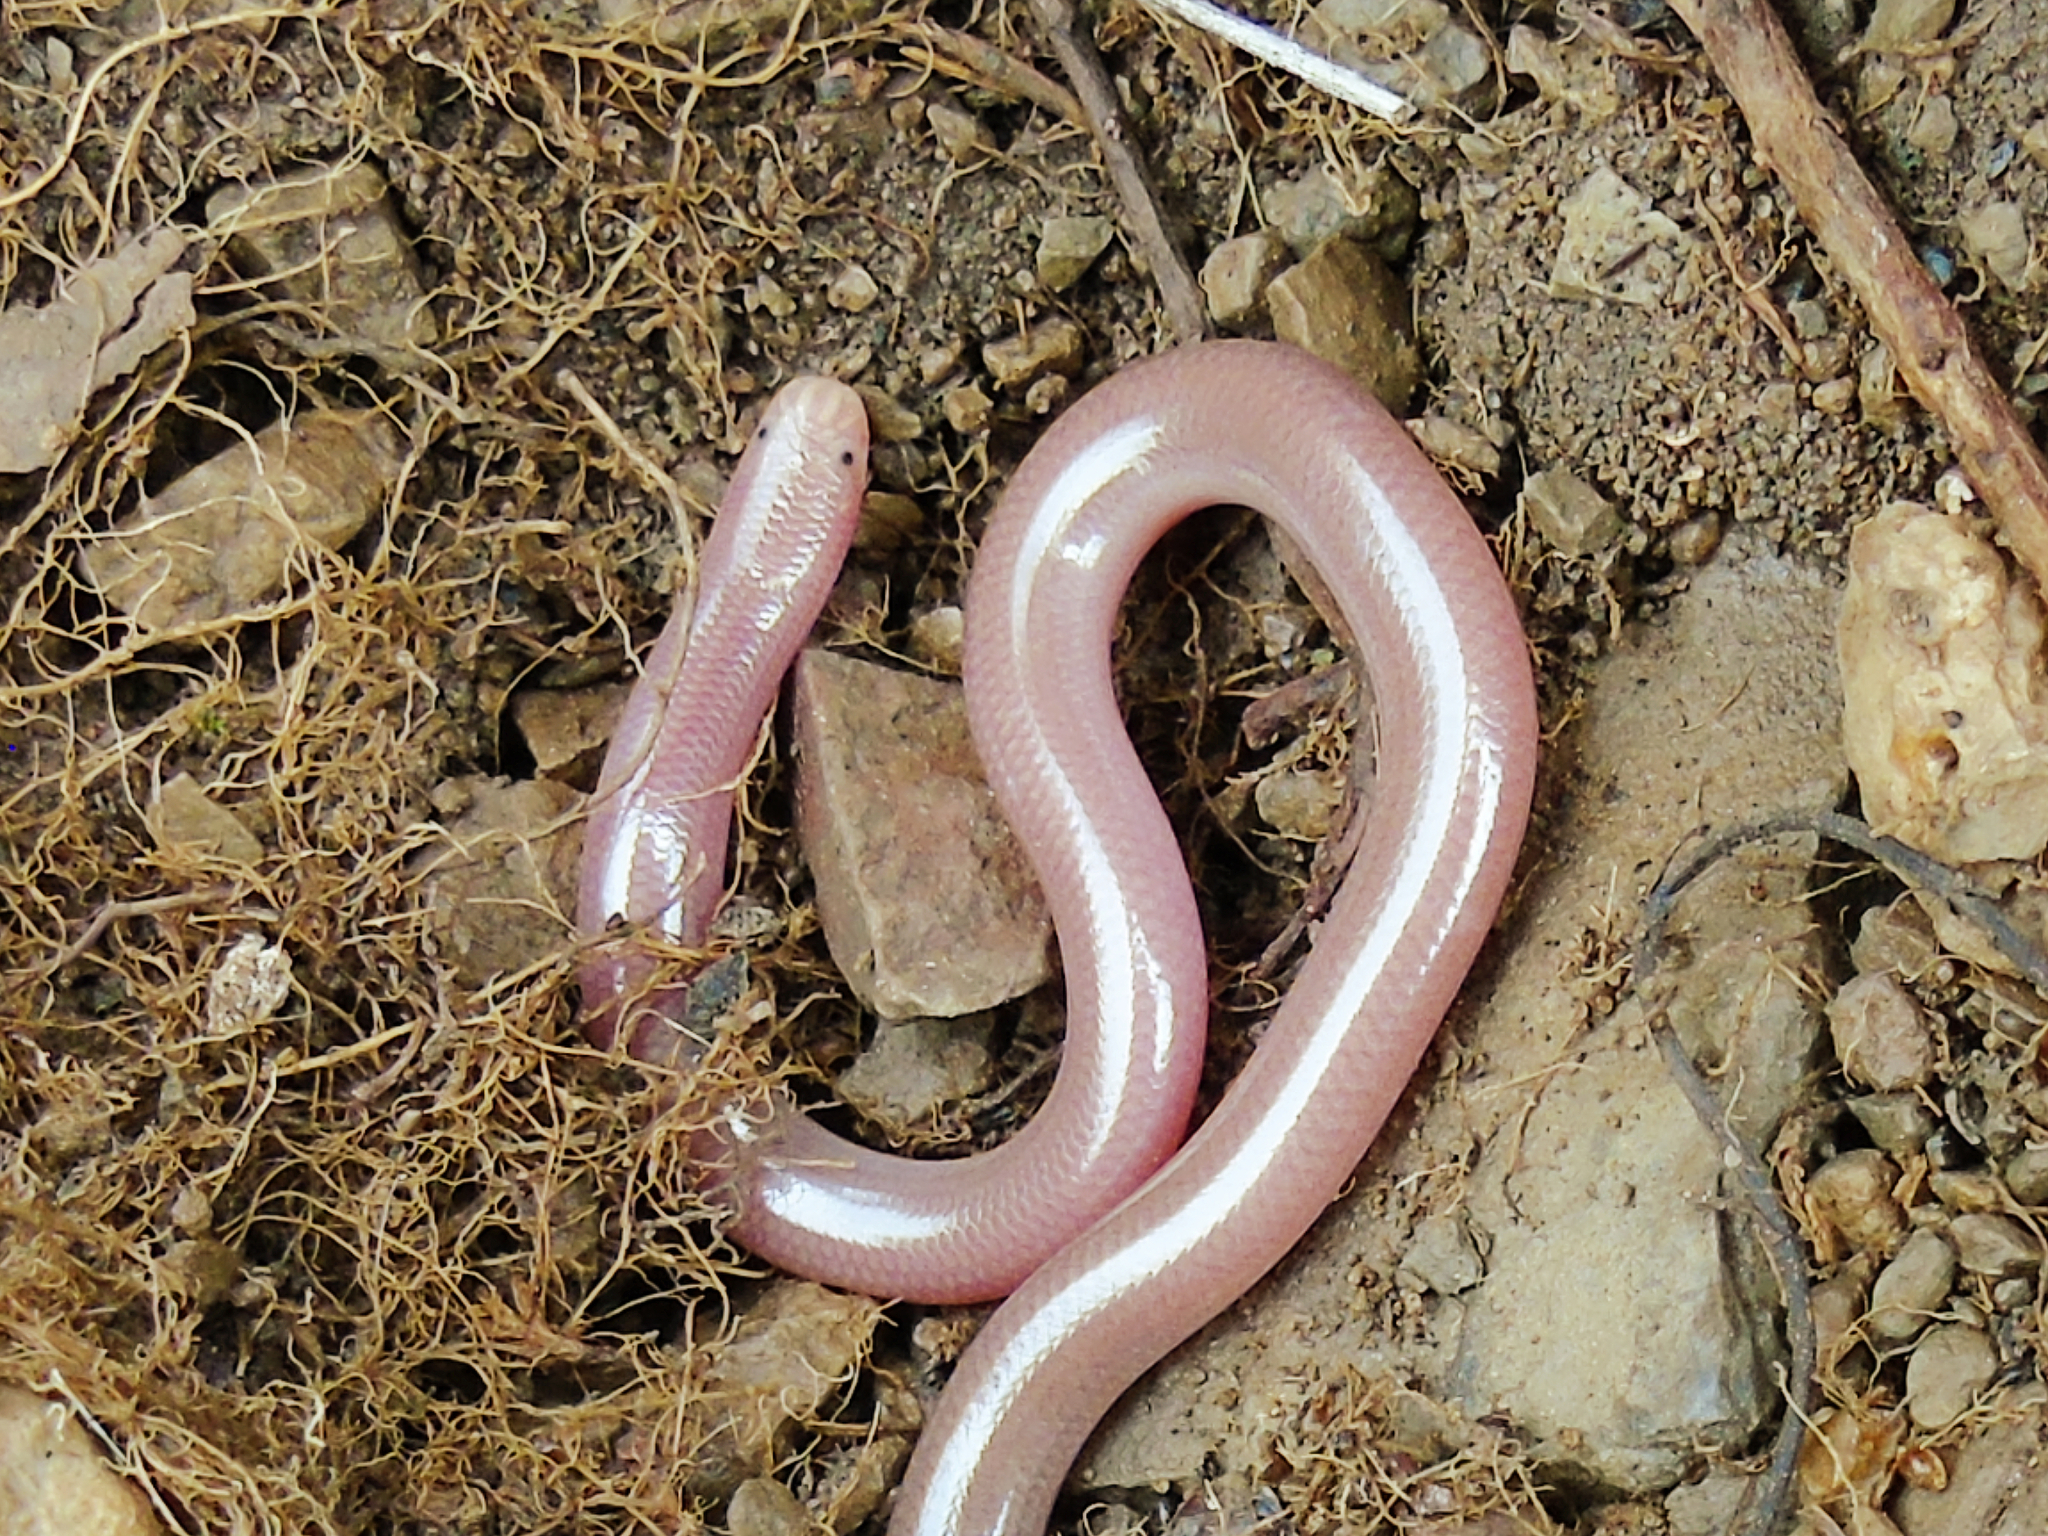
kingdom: Animalia
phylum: Chordata
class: Squamata
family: Typhlopidae
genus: Xerotyphlops
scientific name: Xerotyphlops vermicularis
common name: Eurasian blind snake
